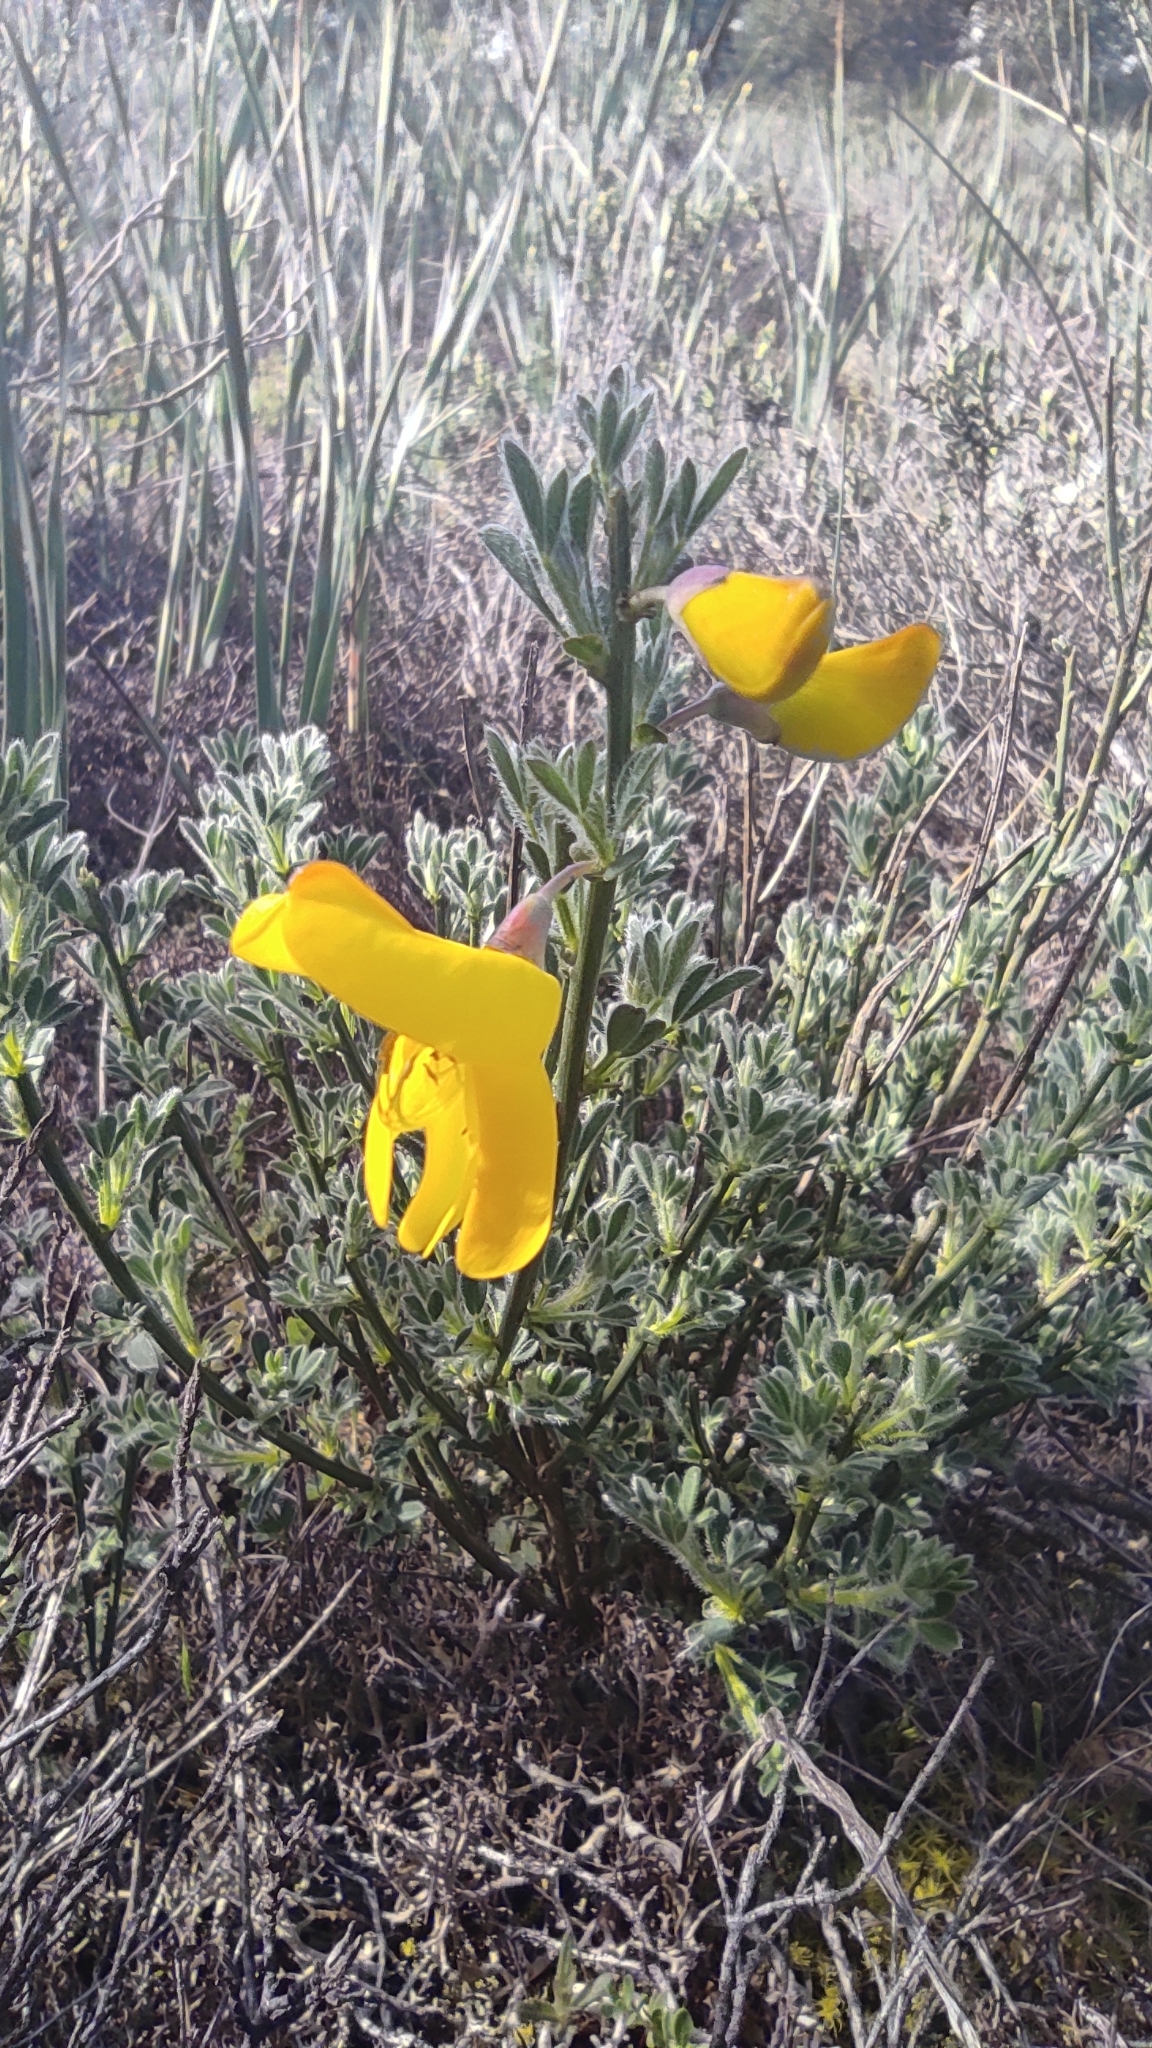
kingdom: Plantae
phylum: Tracheophyta
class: Magnoliopsida
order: Fabales
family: Fabaceae
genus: Cytisus
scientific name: Cytisus scoparius
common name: Scotch broom
